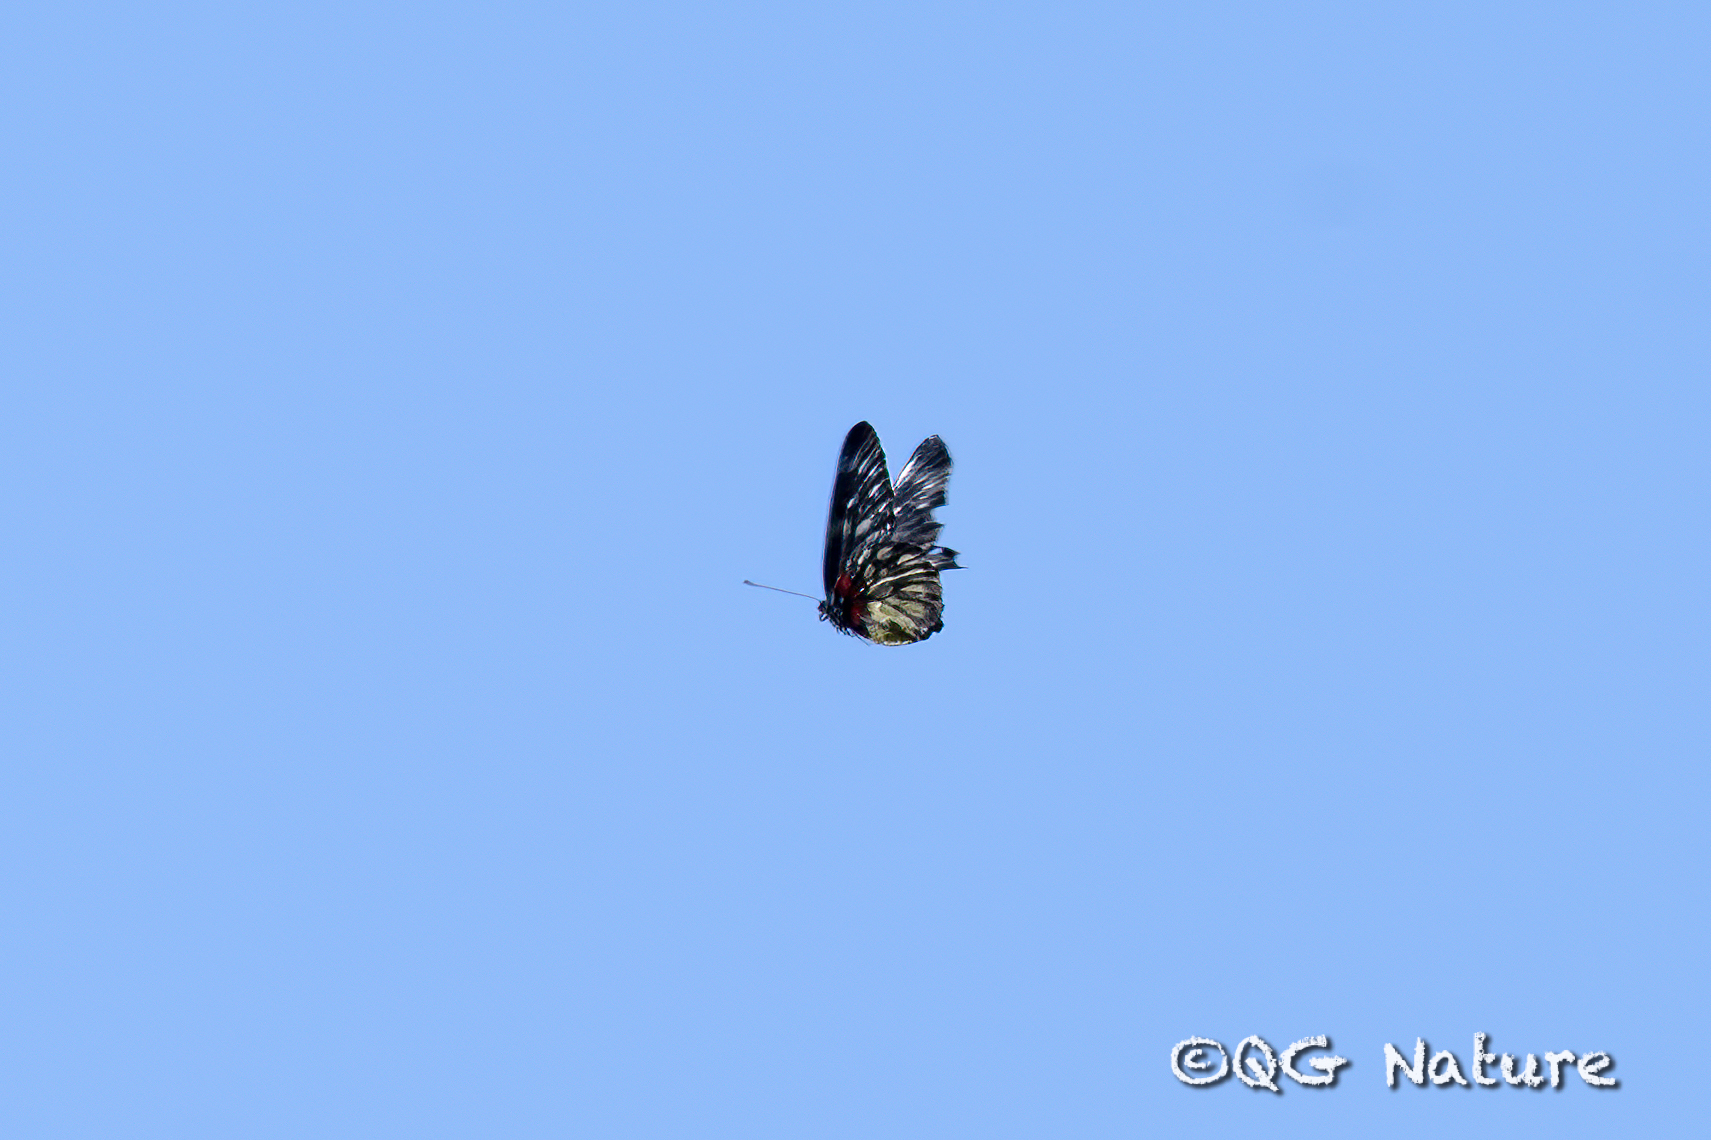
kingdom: Animalia
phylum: Arthropoda
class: Insecta
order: Lepidoptera
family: Pieridae
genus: Delias
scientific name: Delias pasithoe
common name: Red-base jezebel
